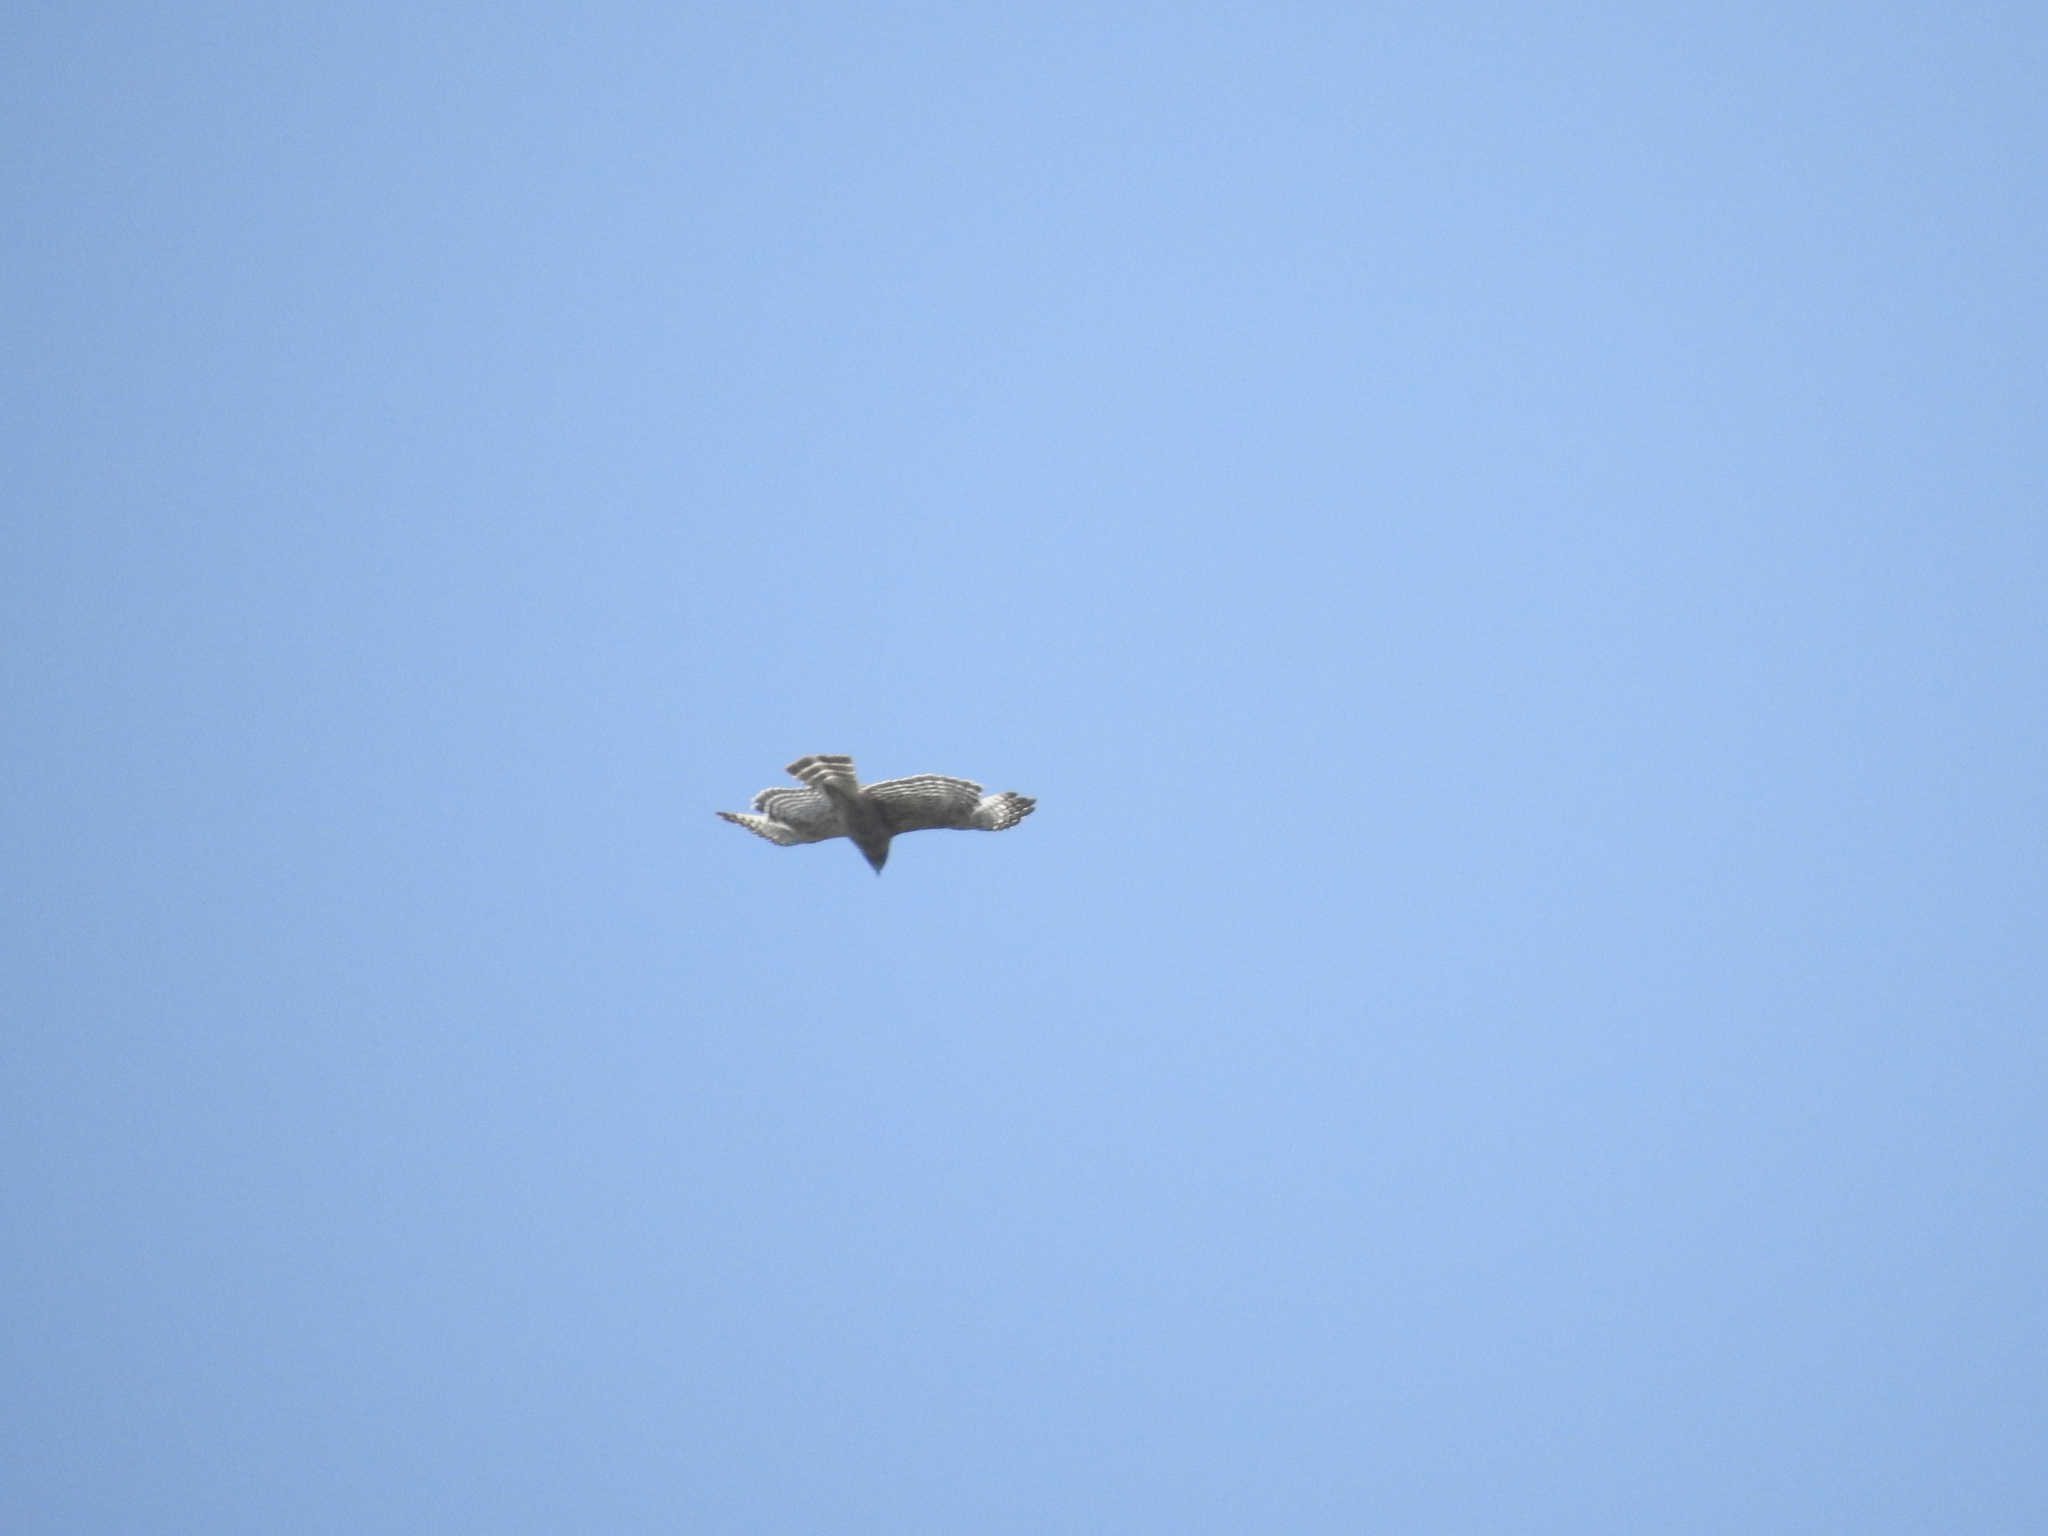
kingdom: Animalia
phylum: Chordata
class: Aves
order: Accipitriformes
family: Accipitridae
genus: Buteo
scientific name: Buteo lineatus
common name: Red-shouldered hawk
